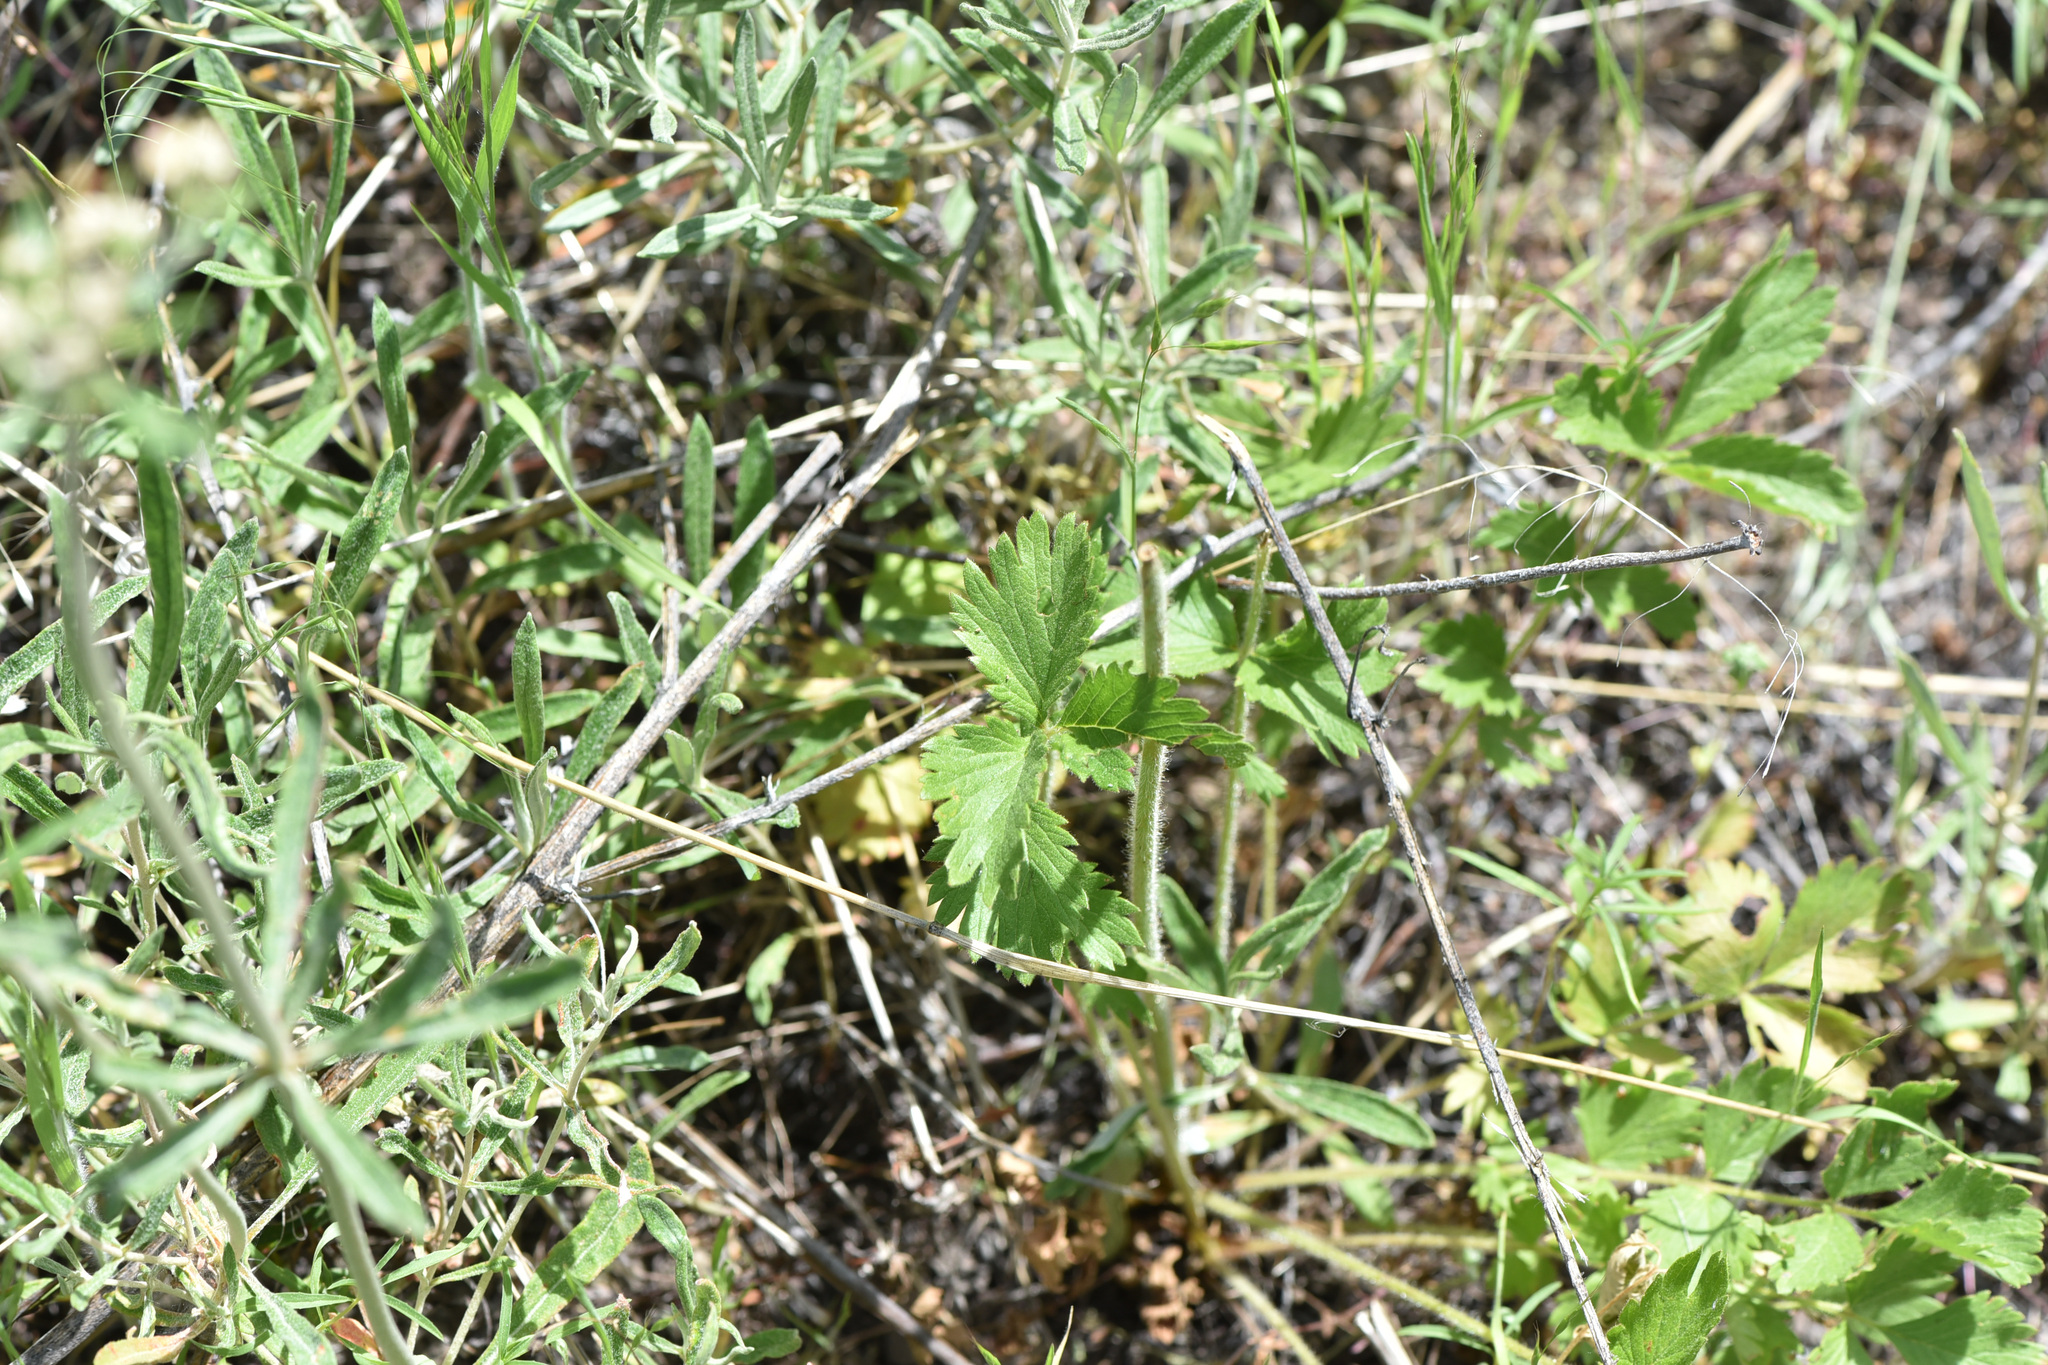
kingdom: Plantae
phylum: Tracheophyta
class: Magnoliopsida
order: Rosales
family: Rosaceae
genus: Drymocallis
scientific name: Drymocallis convallaria
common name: Cream cinquefoil
